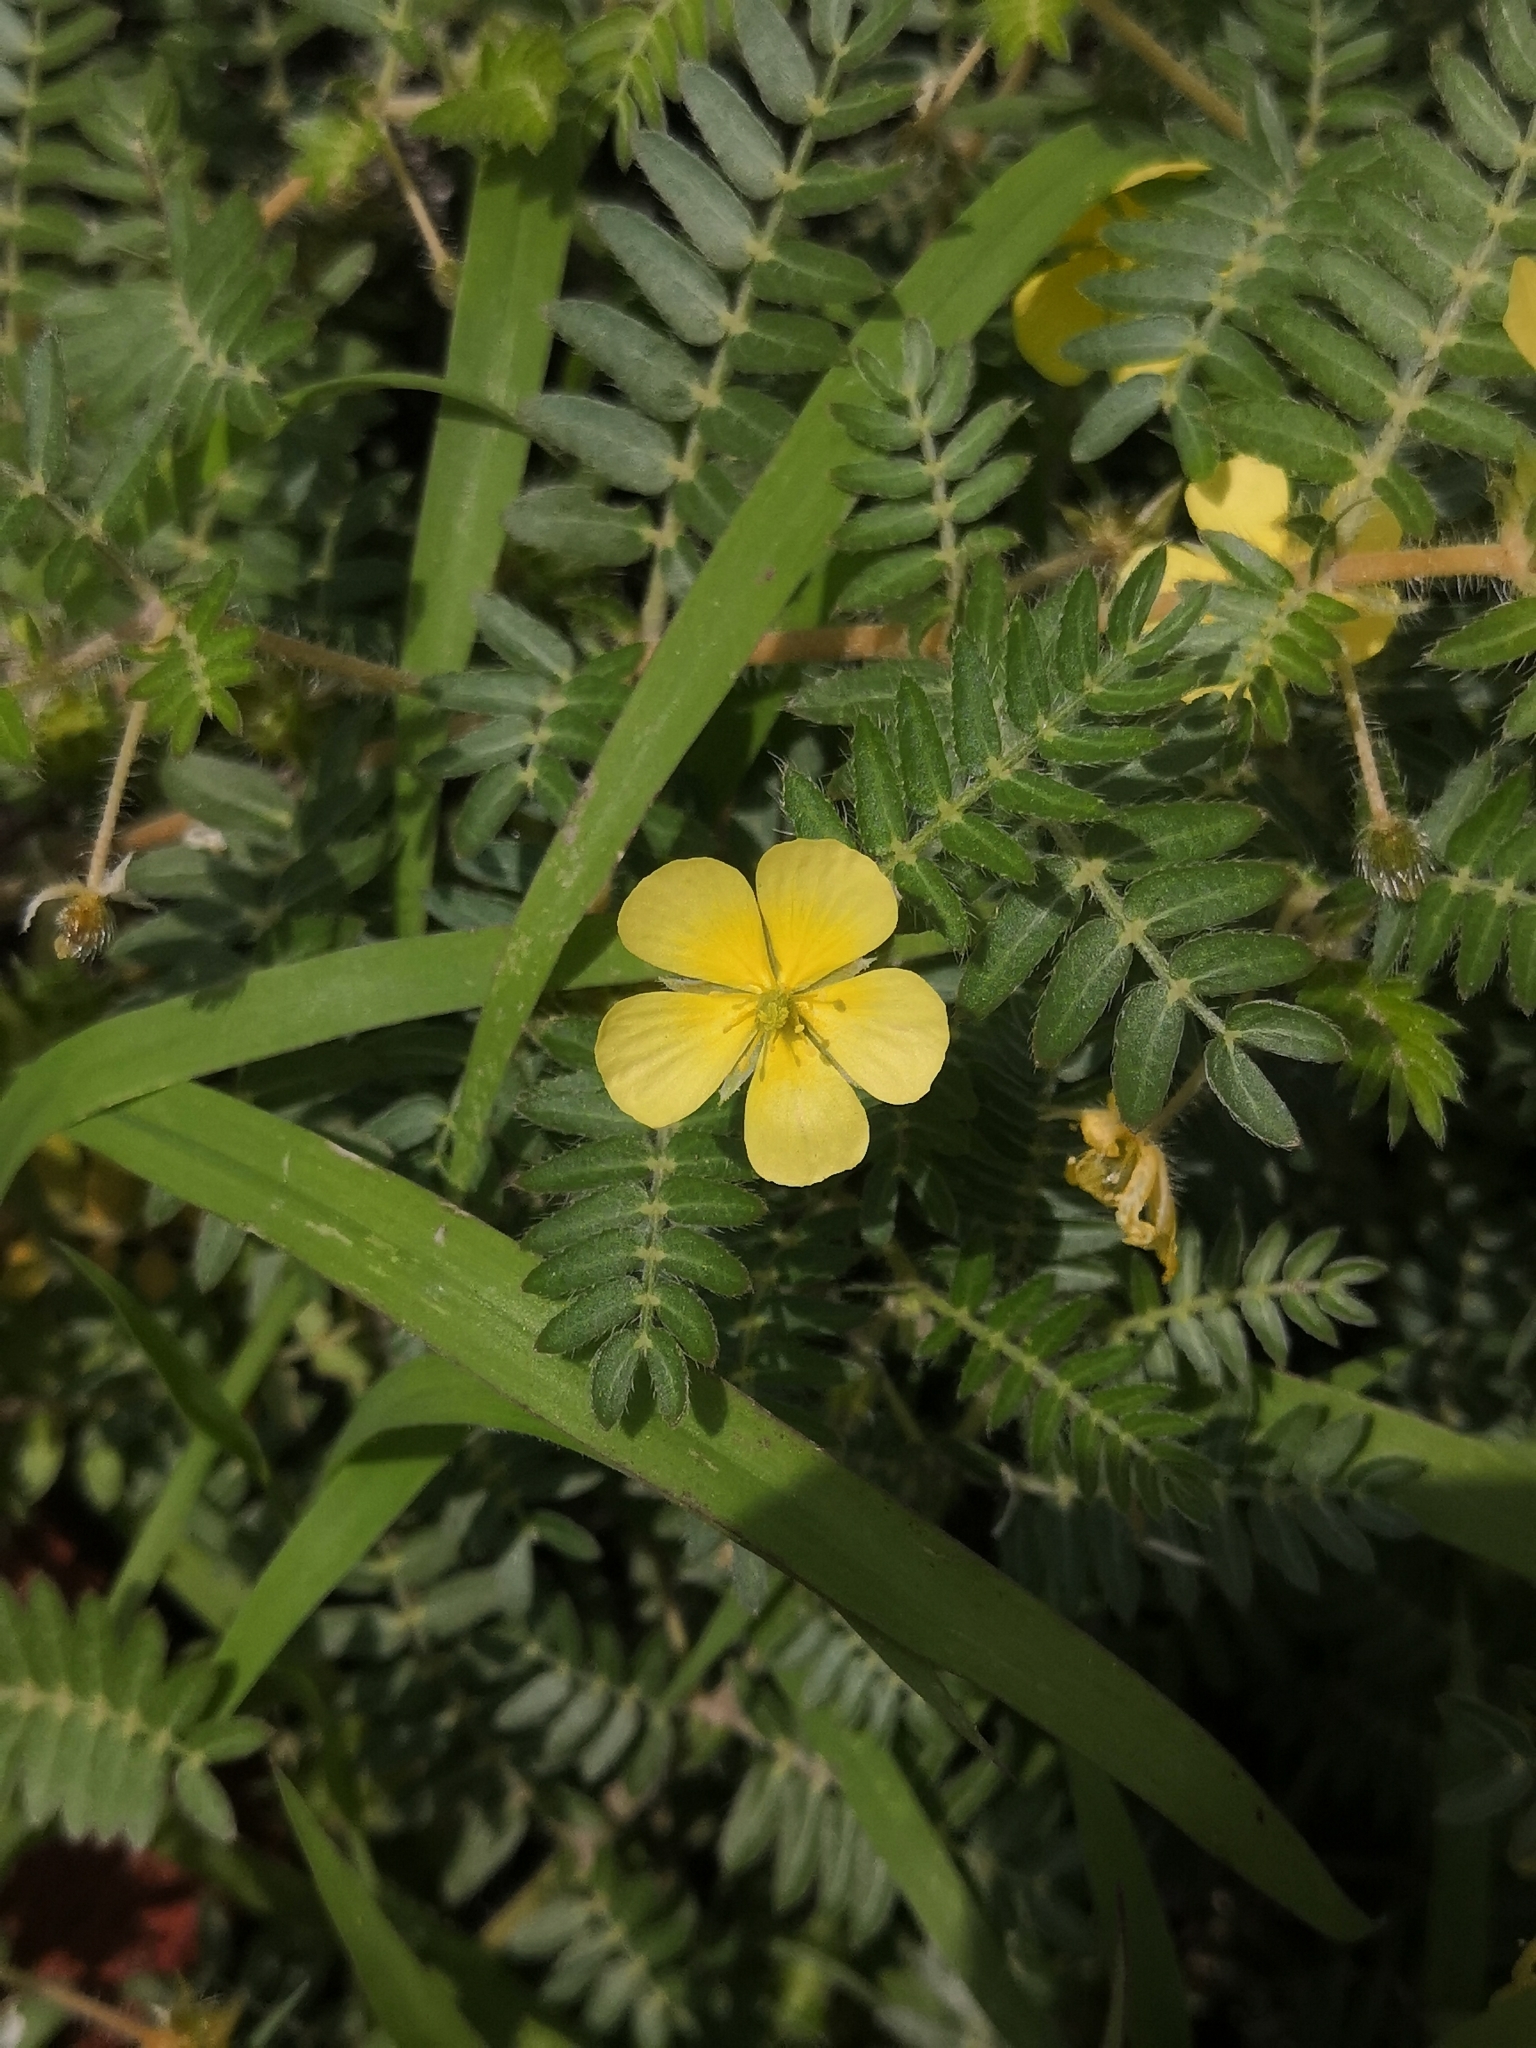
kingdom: Plantae
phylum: Tracheophyta
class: Magnoliopsida
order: Zygophyllales
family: Zygophyllaceae
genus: Tribulus
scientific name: Tribulus terrestris
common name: Puncturevine
